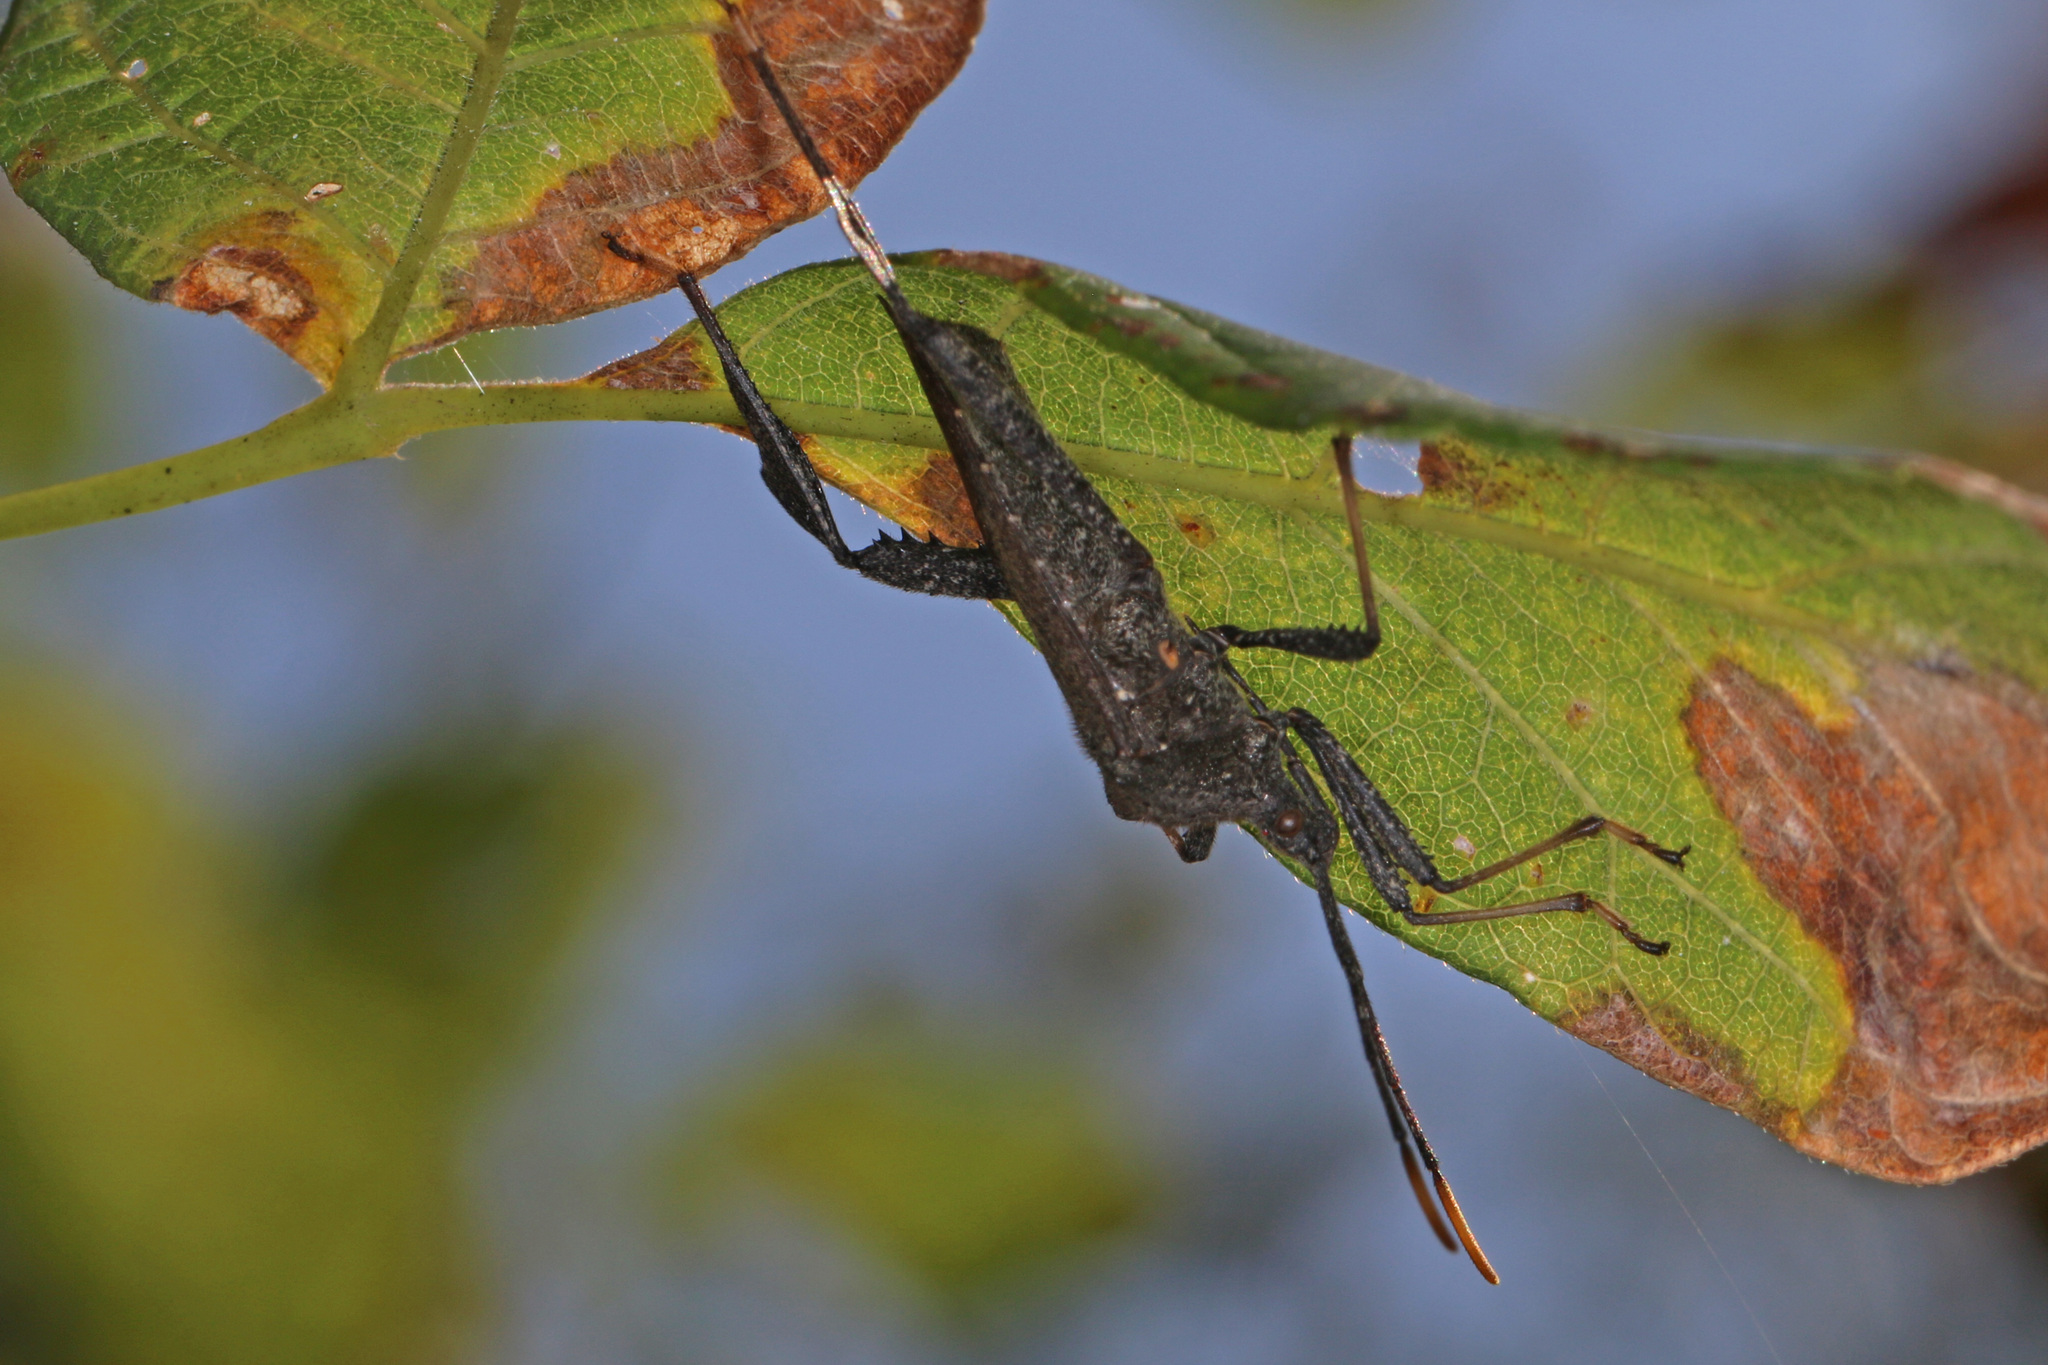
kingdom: Animalia
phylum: Arthropoda
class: Insecta
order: Hemiptera
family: Coreidae
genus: Acanthocephala
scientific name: Acanthocephala terminalis
